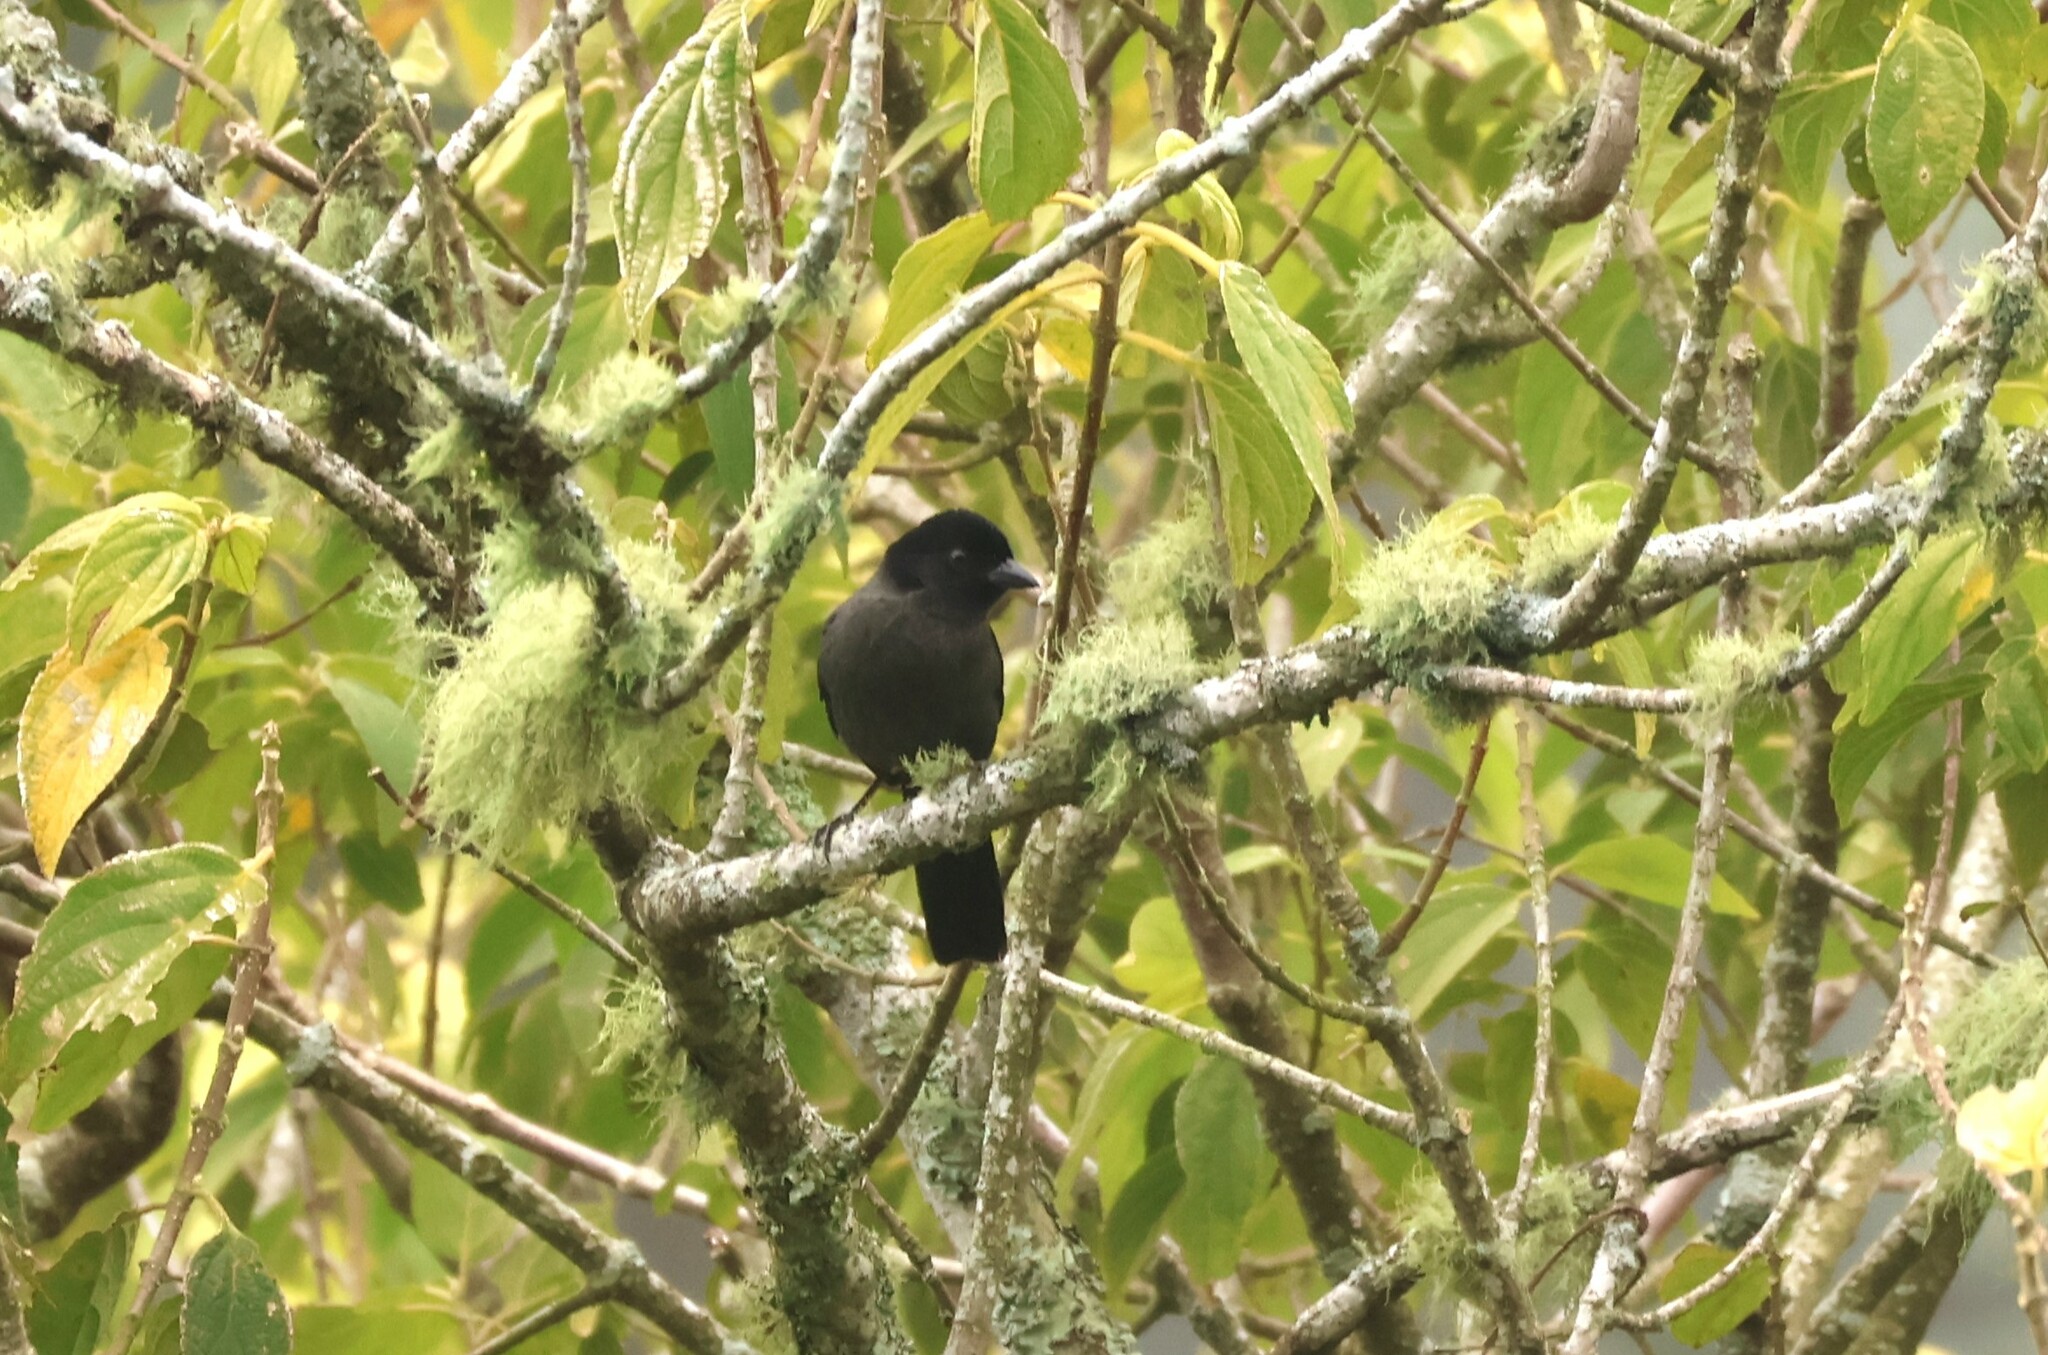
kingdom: Animalia
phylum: Chordata
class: Aves
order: Passeriformes
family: Passerellidae
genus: Atlapetes
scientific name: Atlapetes tibialis
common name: Yellow-thighed brushfinch
